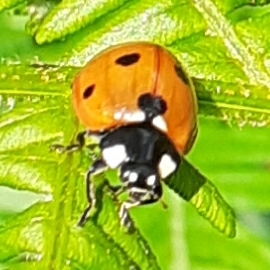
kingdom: Animalia
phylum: Arthropoda
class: Insecta
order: Coleoptera
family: Coccinellidae
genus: Coccinella
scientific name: Coccinella septempunctata
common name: Sevenspotted lady beetle
